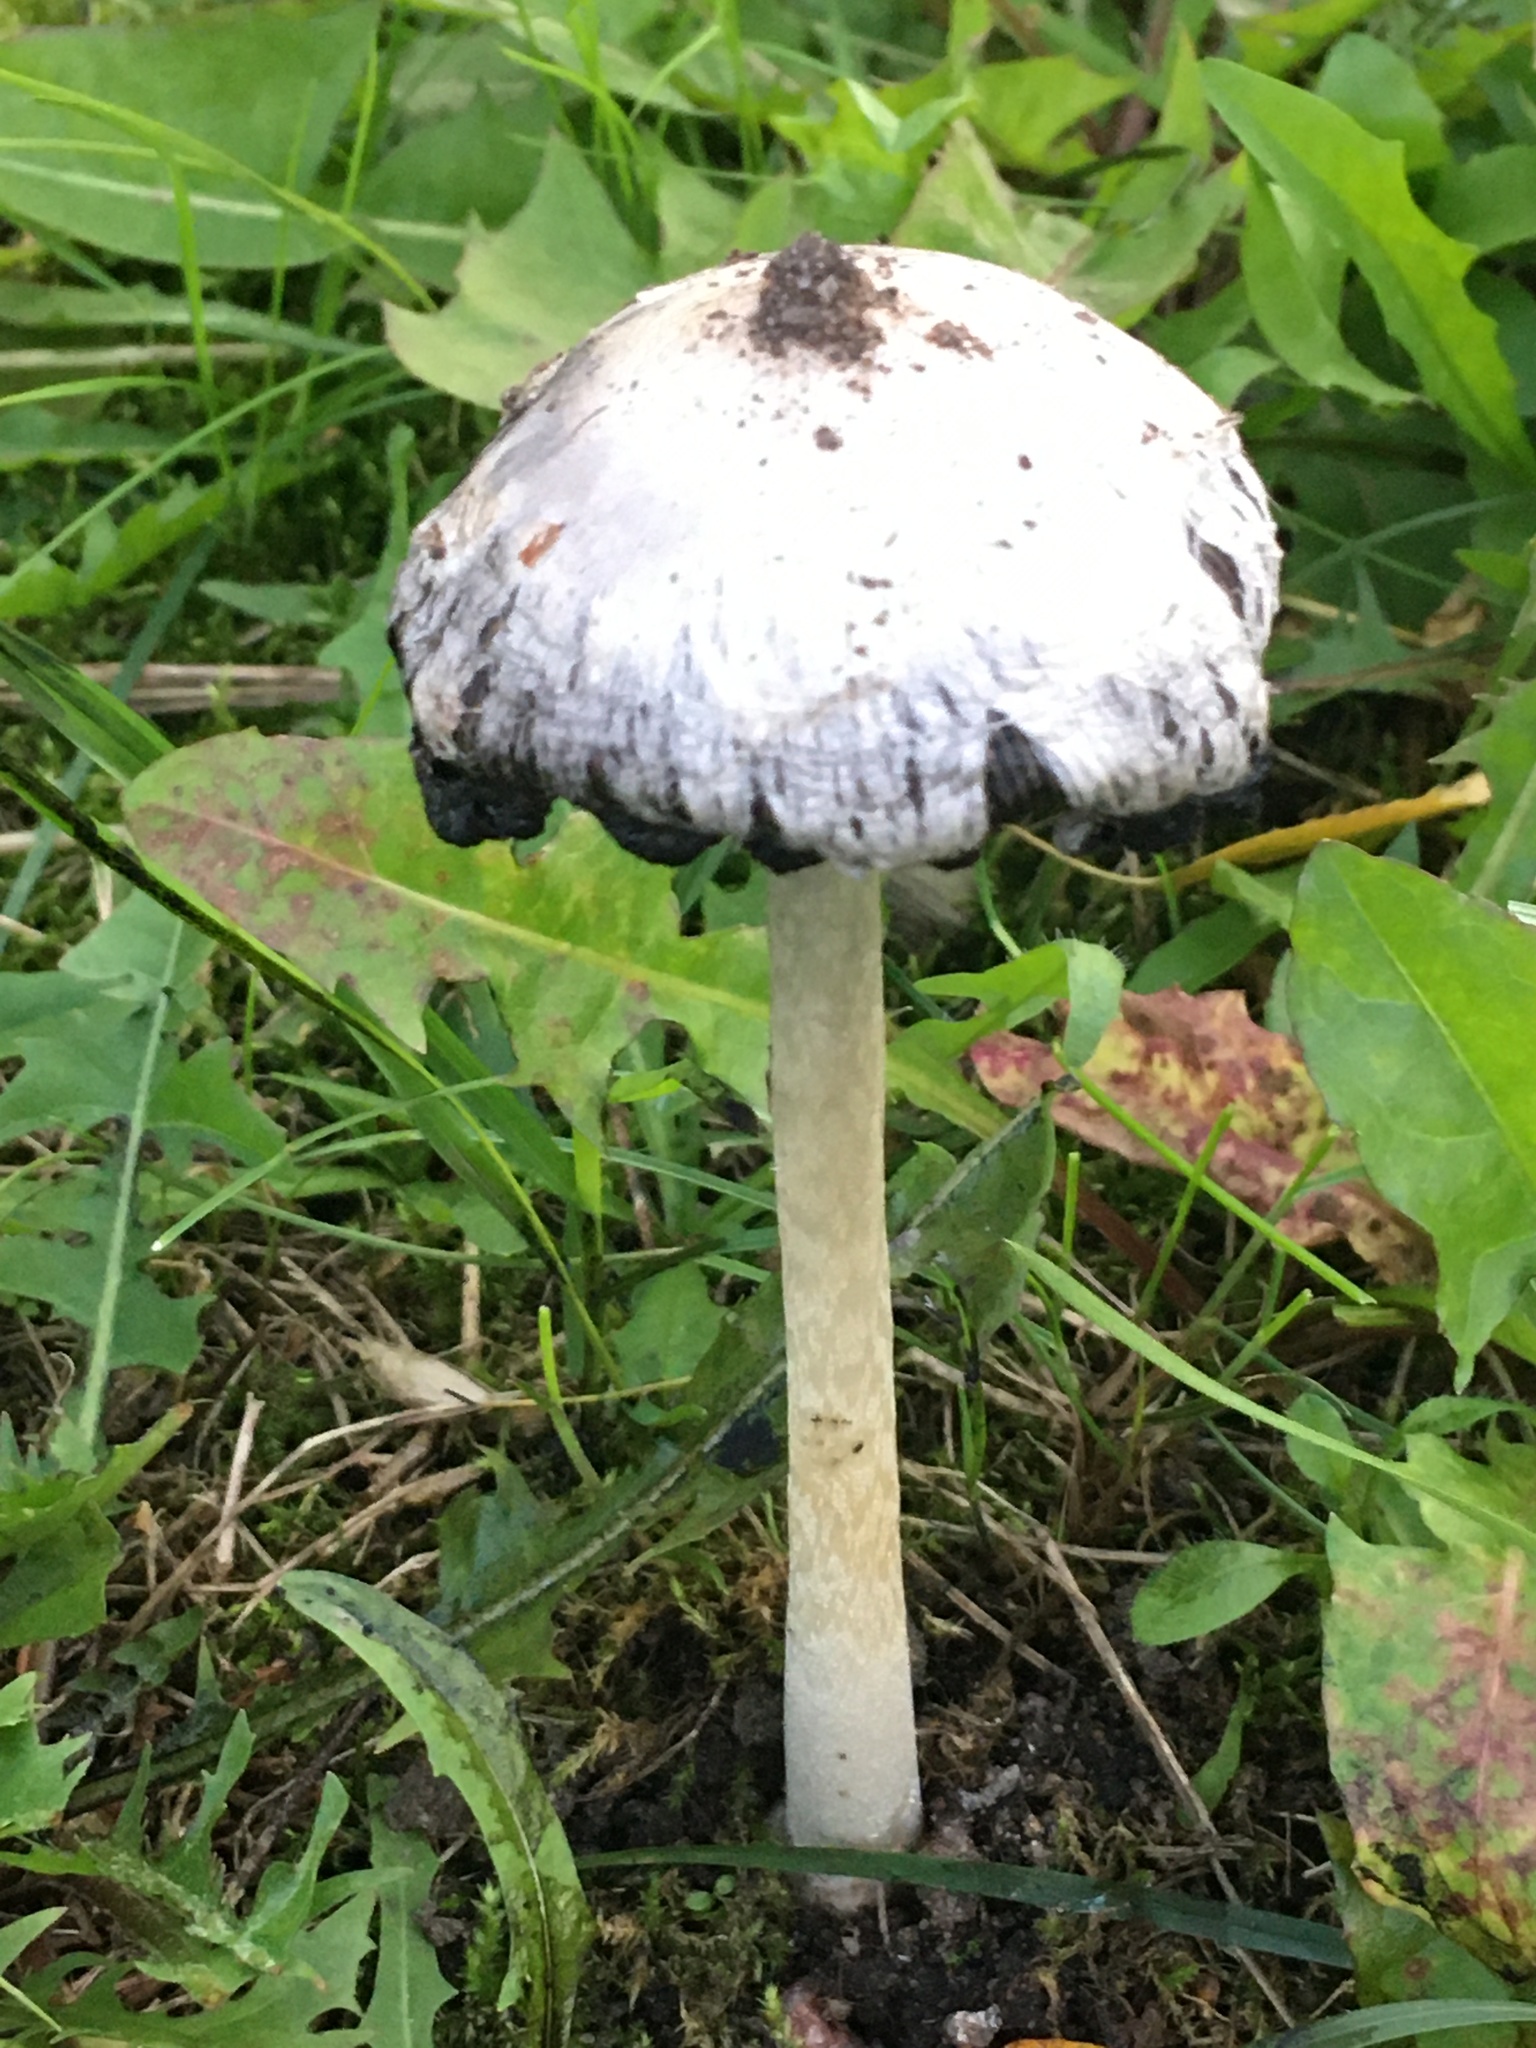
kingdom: Fungi
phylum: Basidiomycota
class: Agaricomycetes
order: Agaricales
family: Agaricaceae
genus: Coprinus
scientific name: Coprinus comatus
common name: Lawyer's wig
